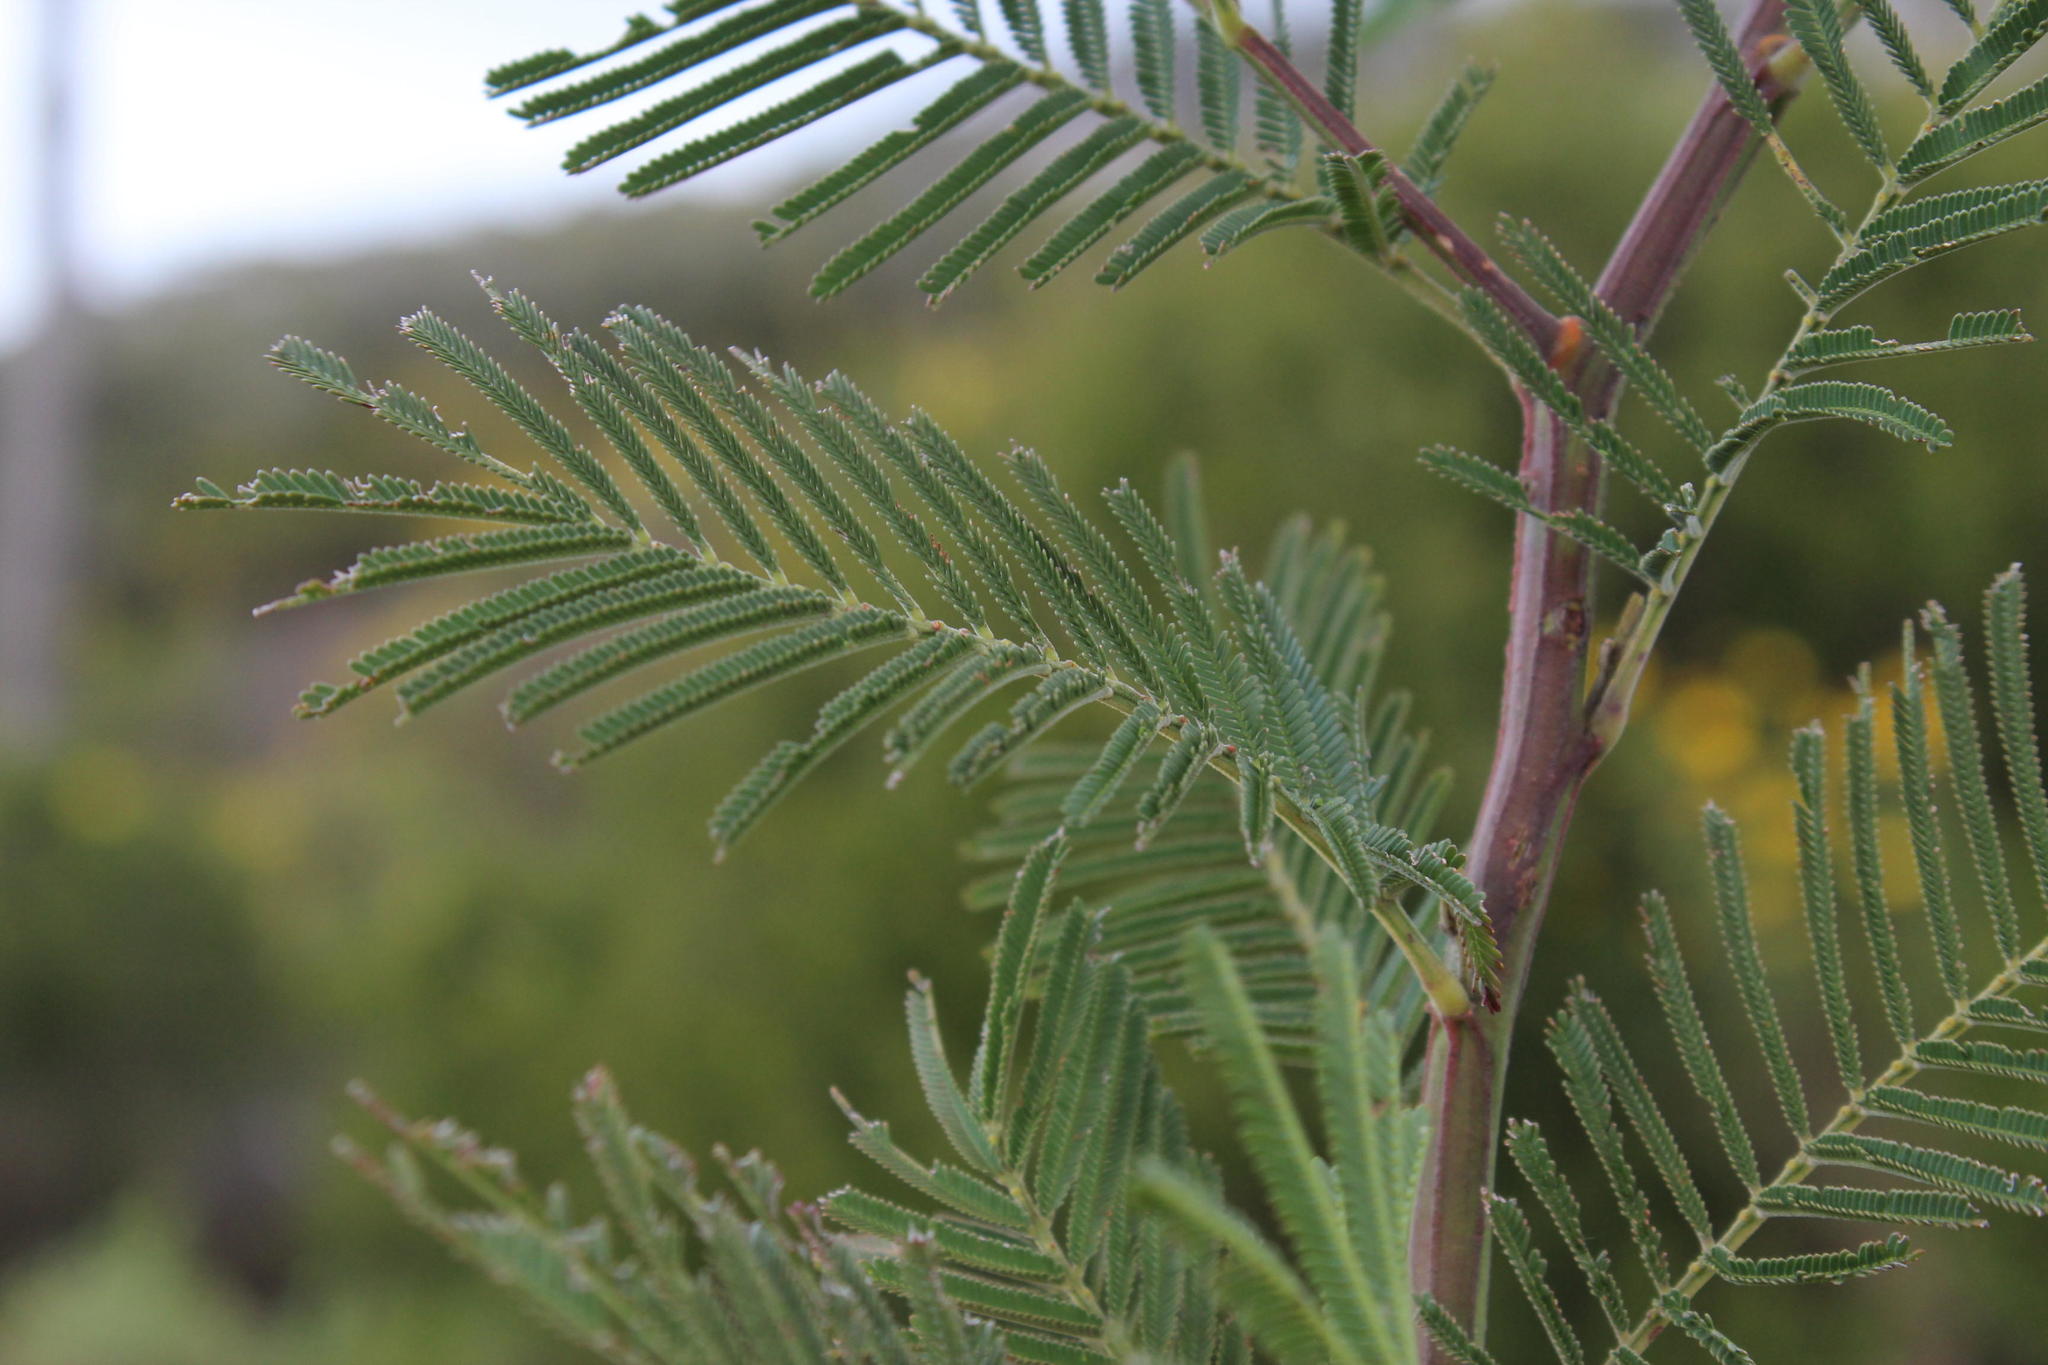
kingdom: Plantae
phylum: Tracheophyta
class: Magnoliopsida
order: Fabales
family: Fabaceae
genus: Acacia
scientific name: Acacia mearnsii
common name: Black wattle
